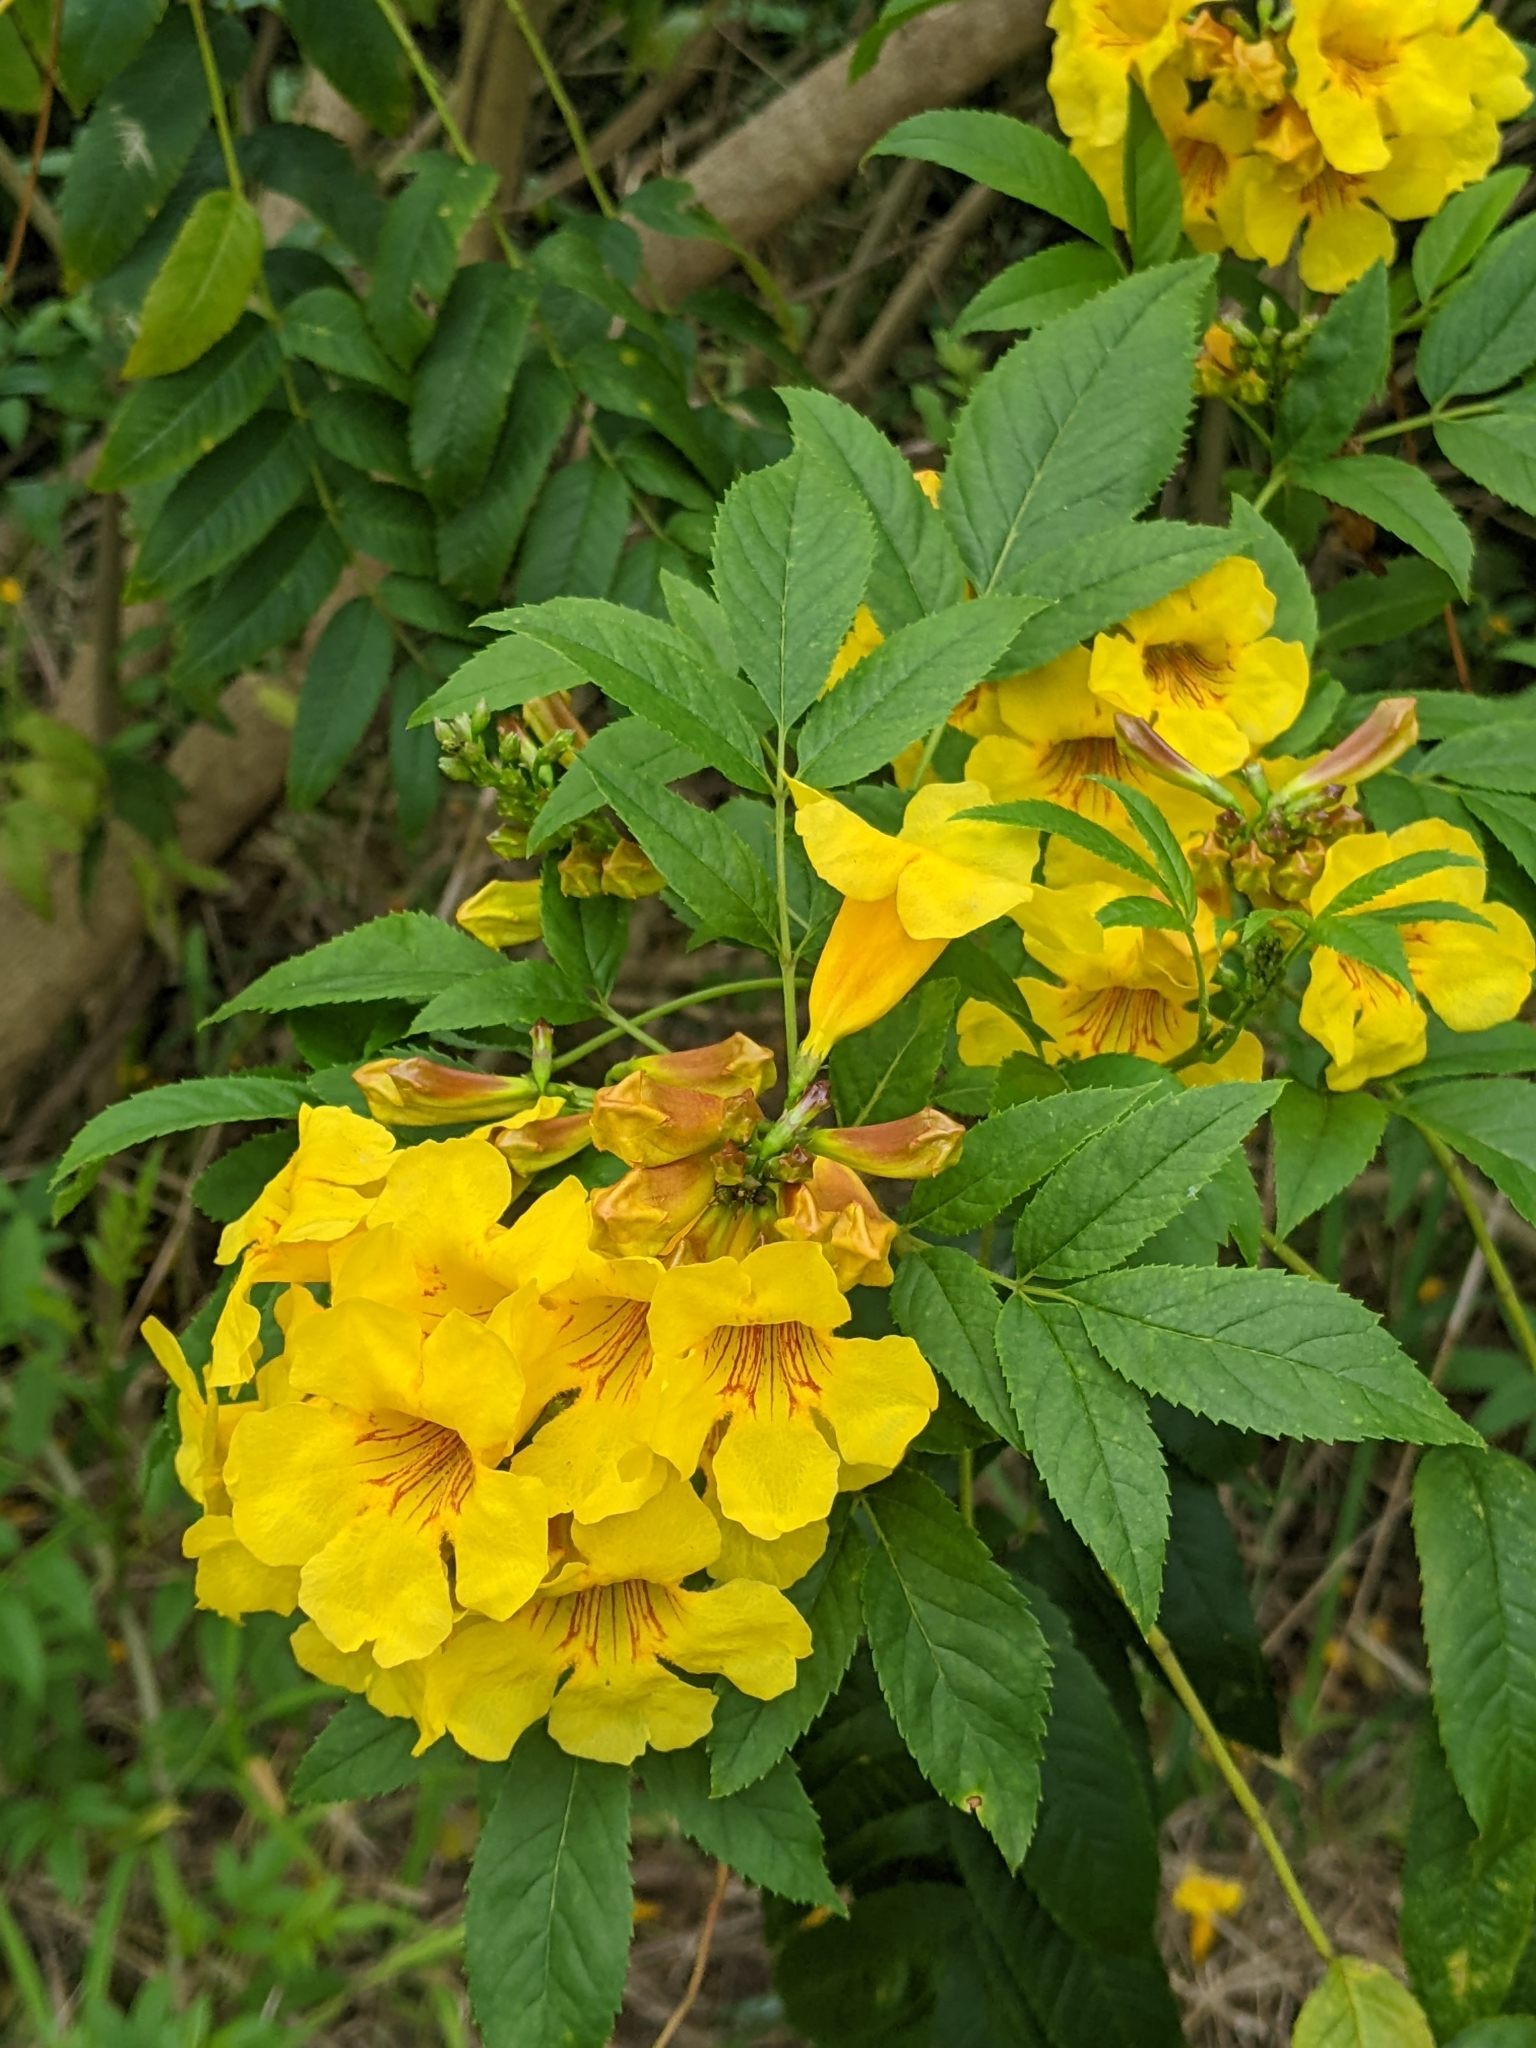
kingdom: Plantae
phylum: Tracheophyta
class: Magnoliopsida
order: Lamiales
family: Bignoniaceae
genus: Tecoma
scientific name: Tecoma stans
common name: Yellow trumpetbush
